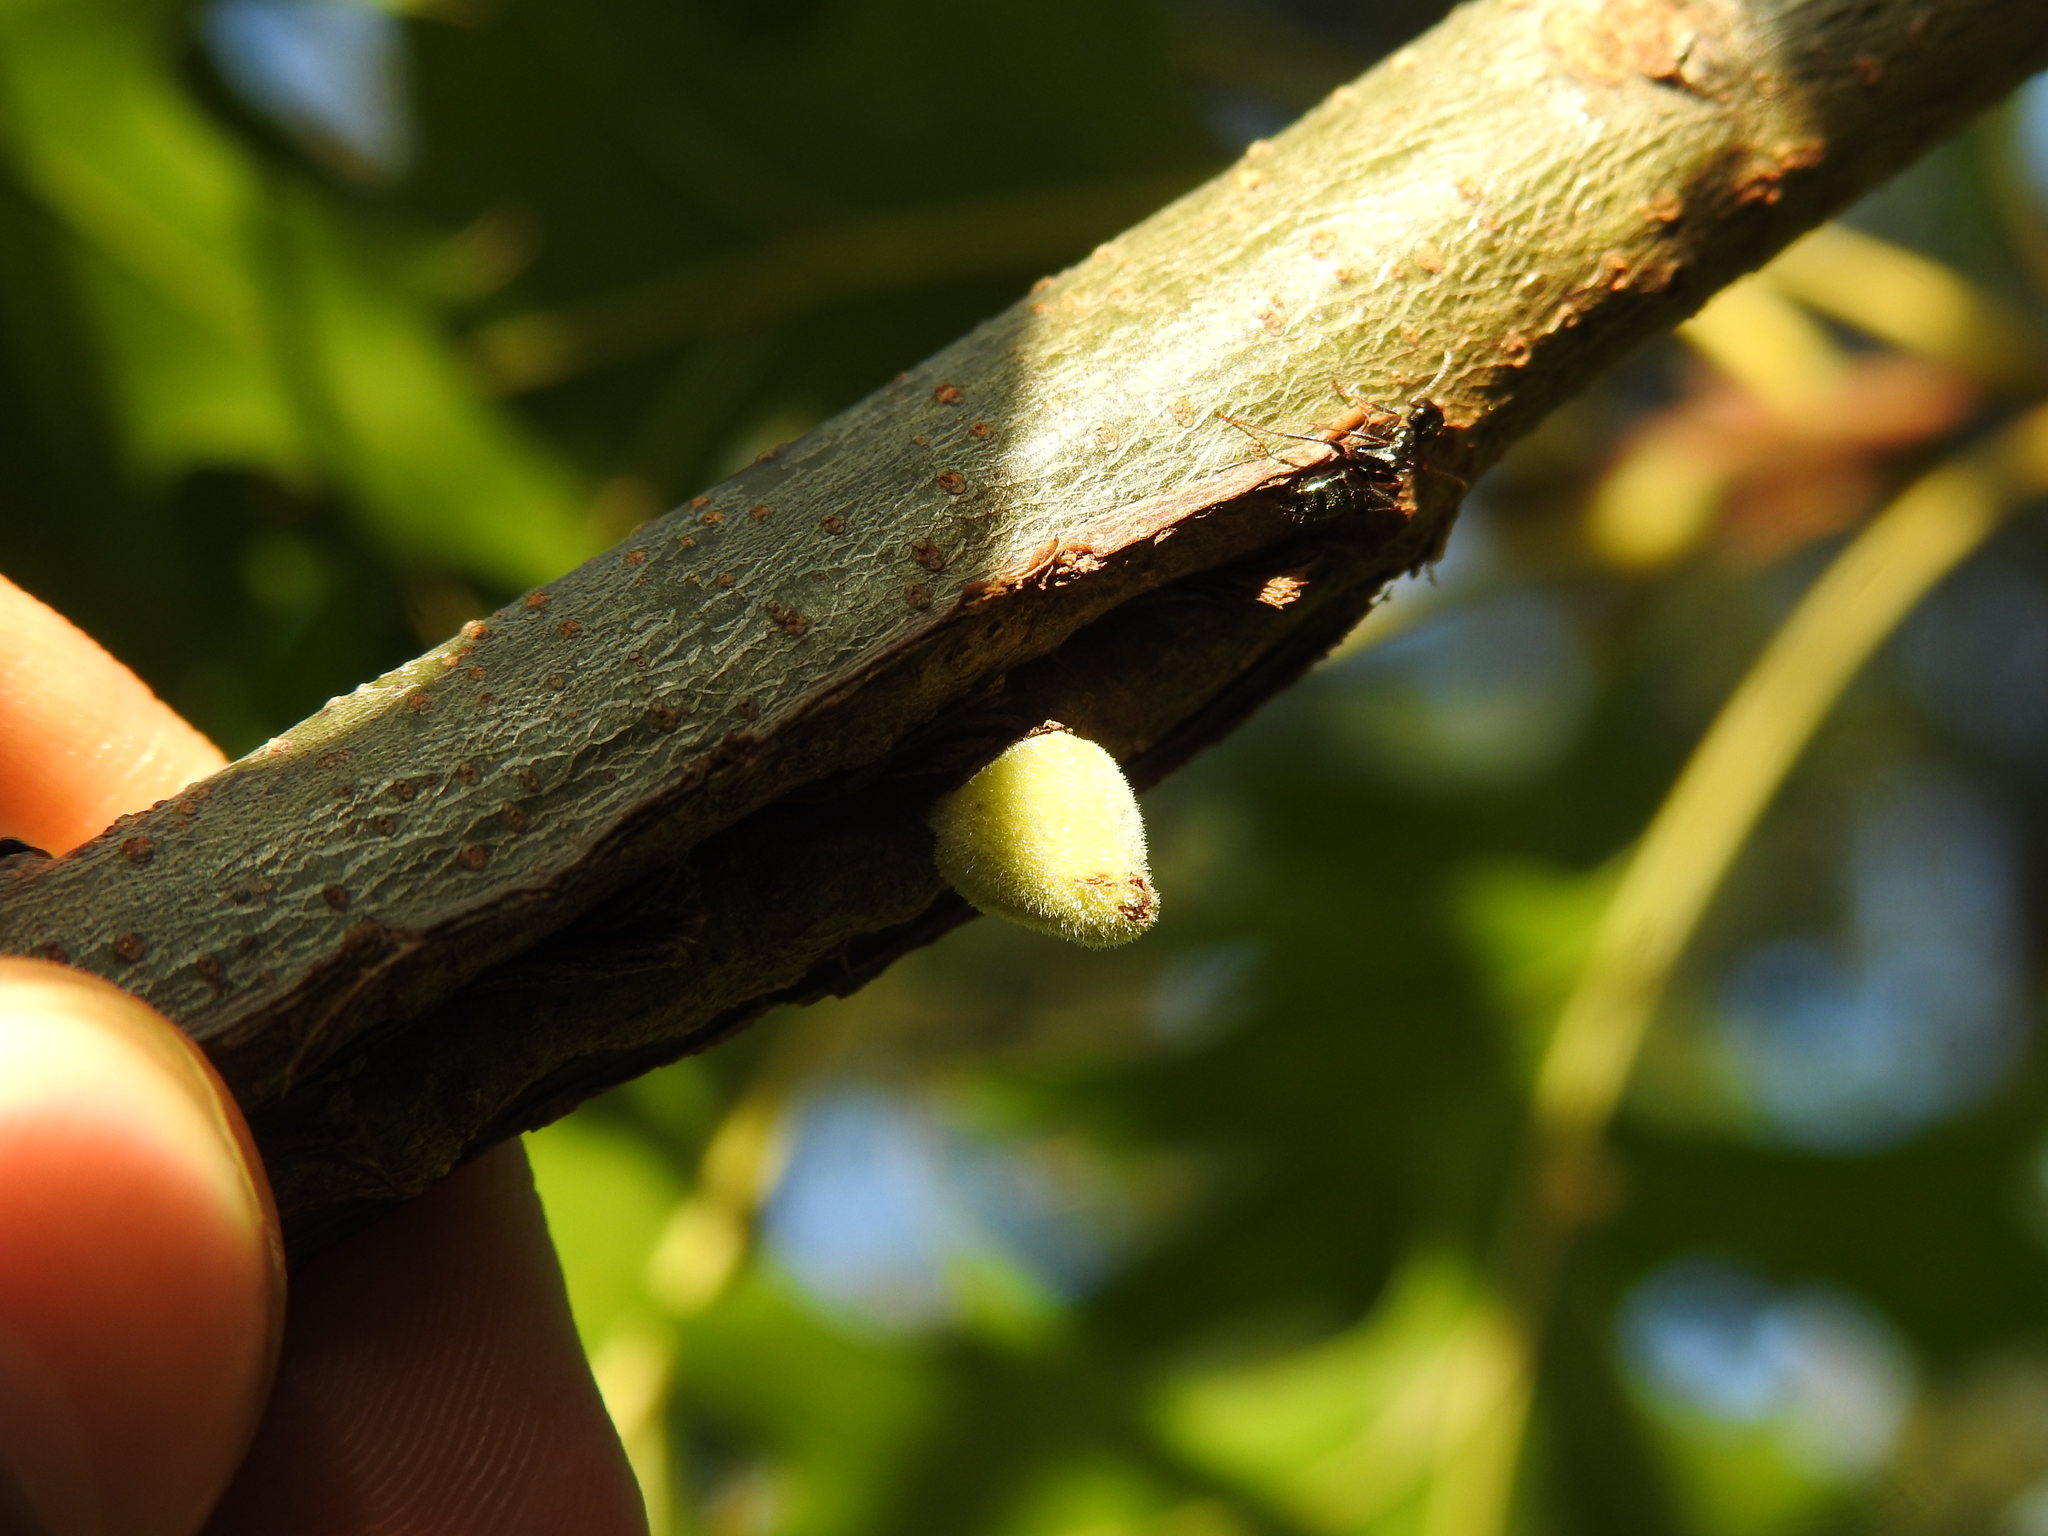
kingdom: Animalia
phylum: Arthropoda
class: Insecta
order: Hymenoptera
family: Cynipidae
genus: Disholcaspis
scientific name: Disholcaspis
